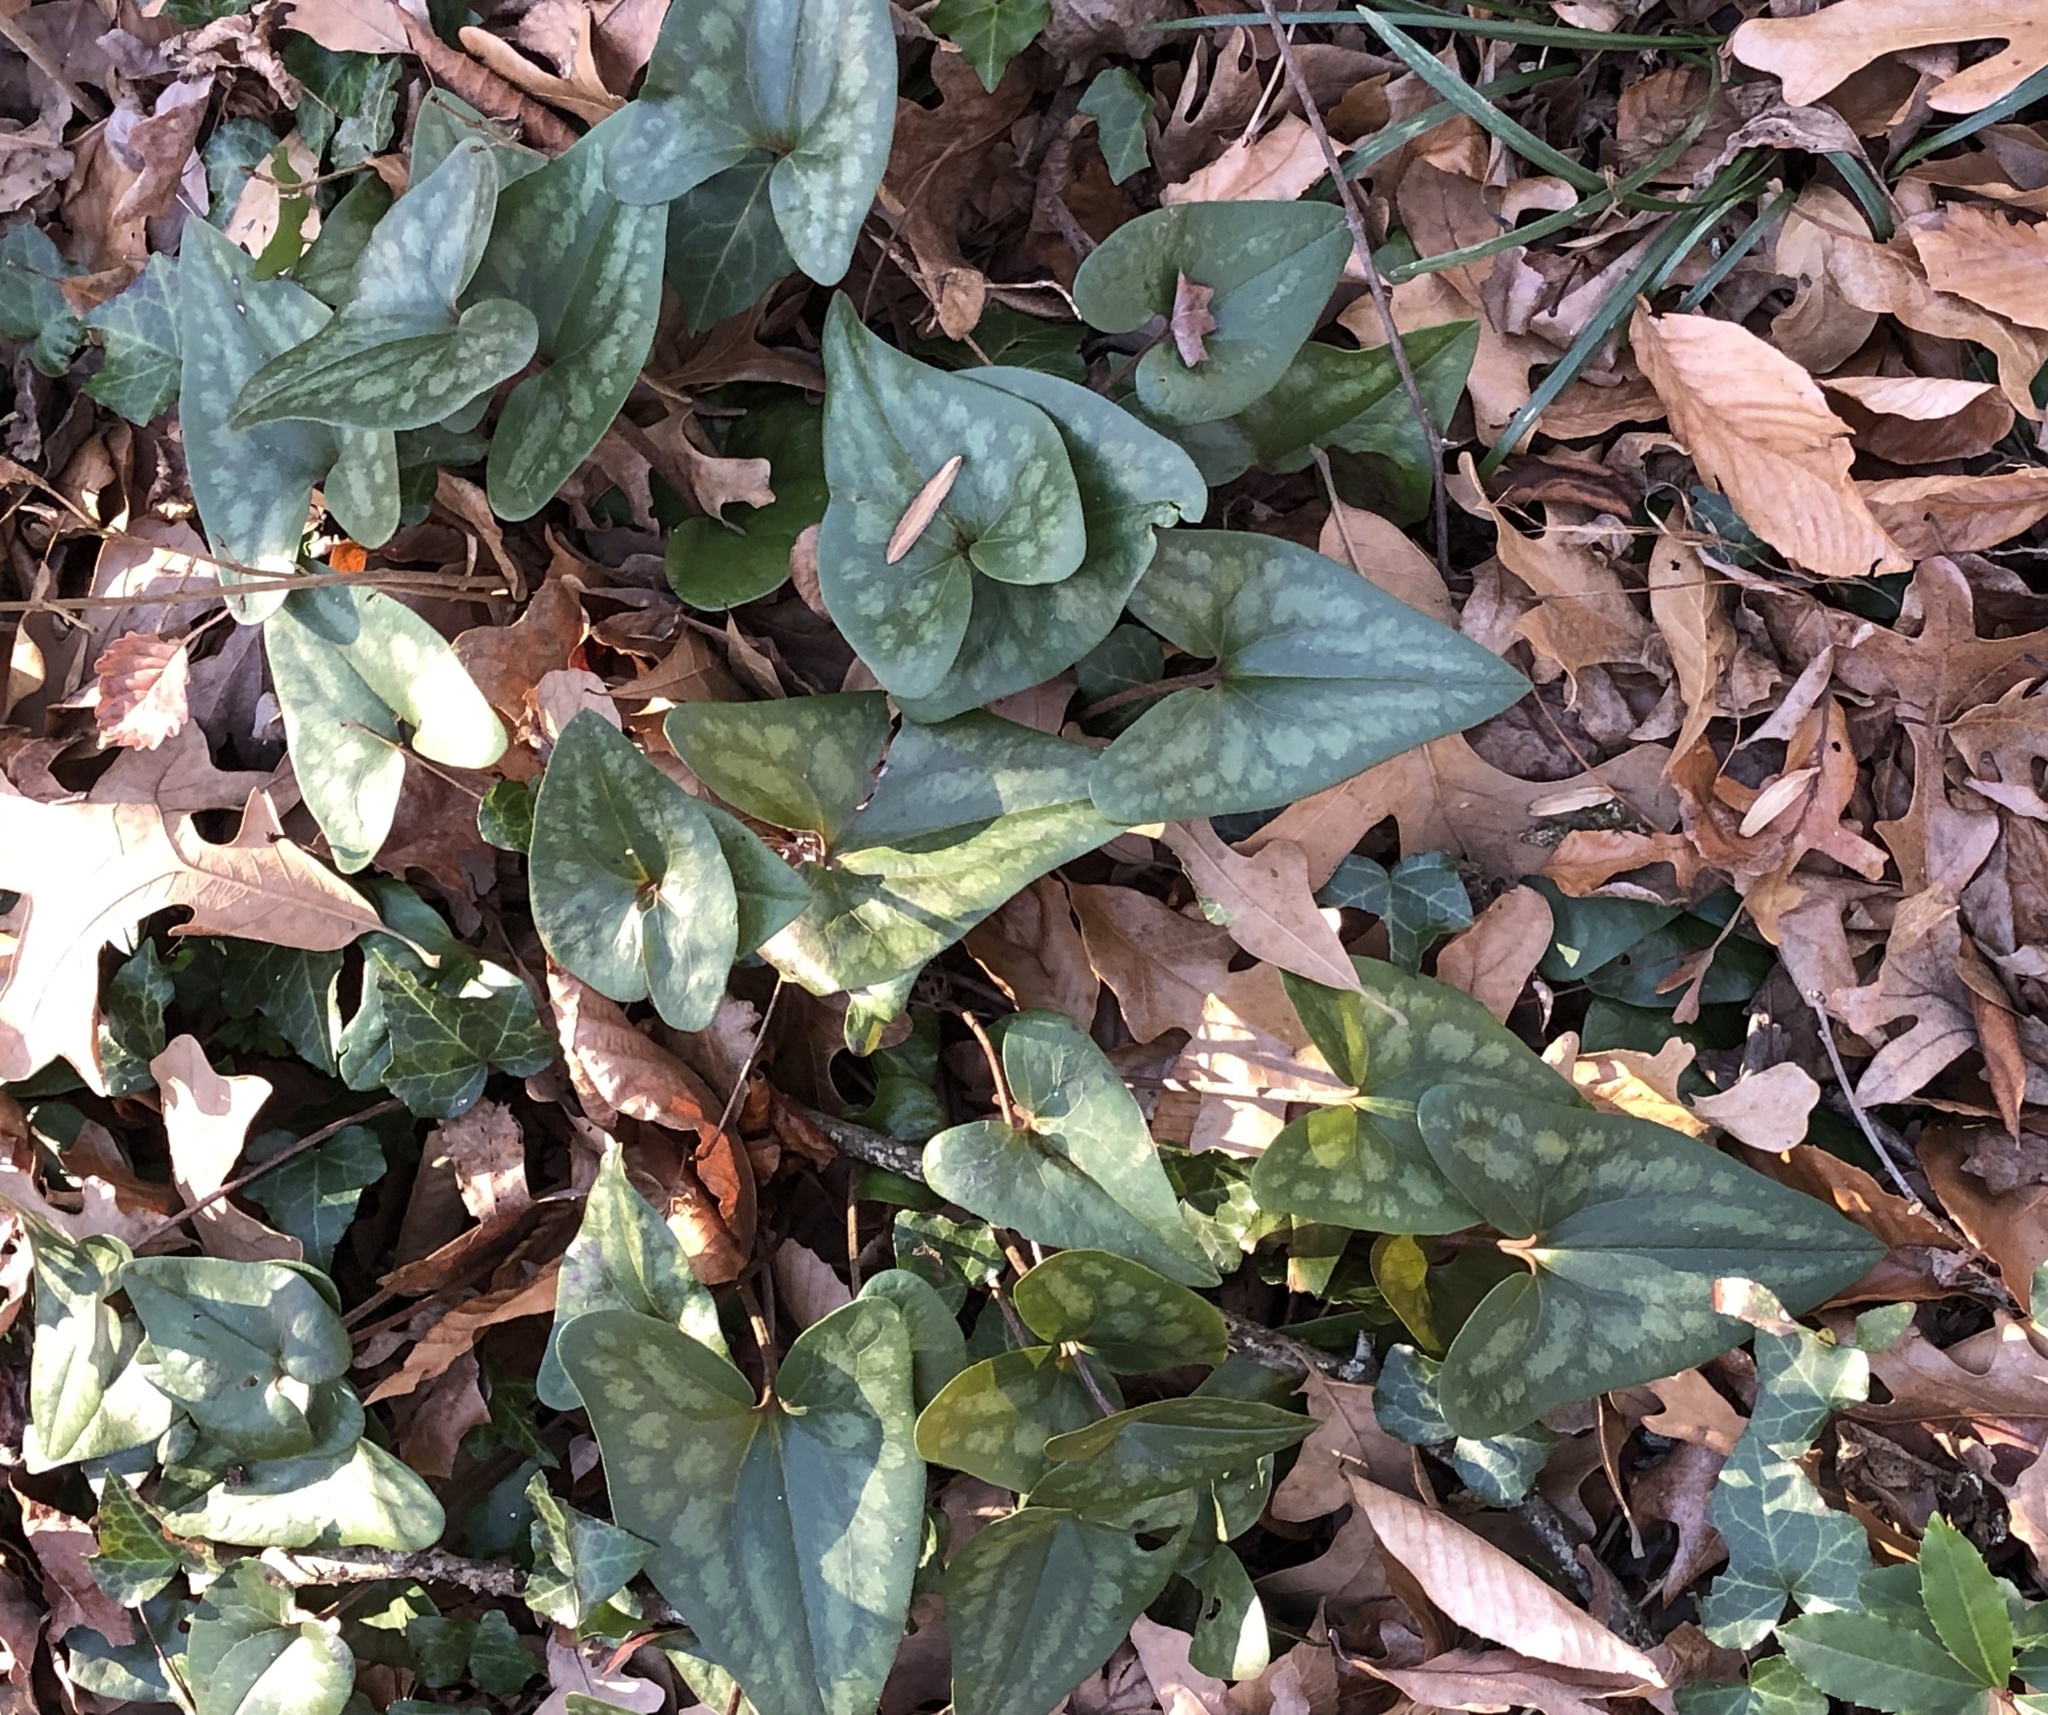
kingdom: Plantae
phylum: Tracheophyta
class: Magnoliopsida
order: Piperales
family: Aristolochiaceae
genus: Hexastylis
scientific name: Hexastylis arifolia
